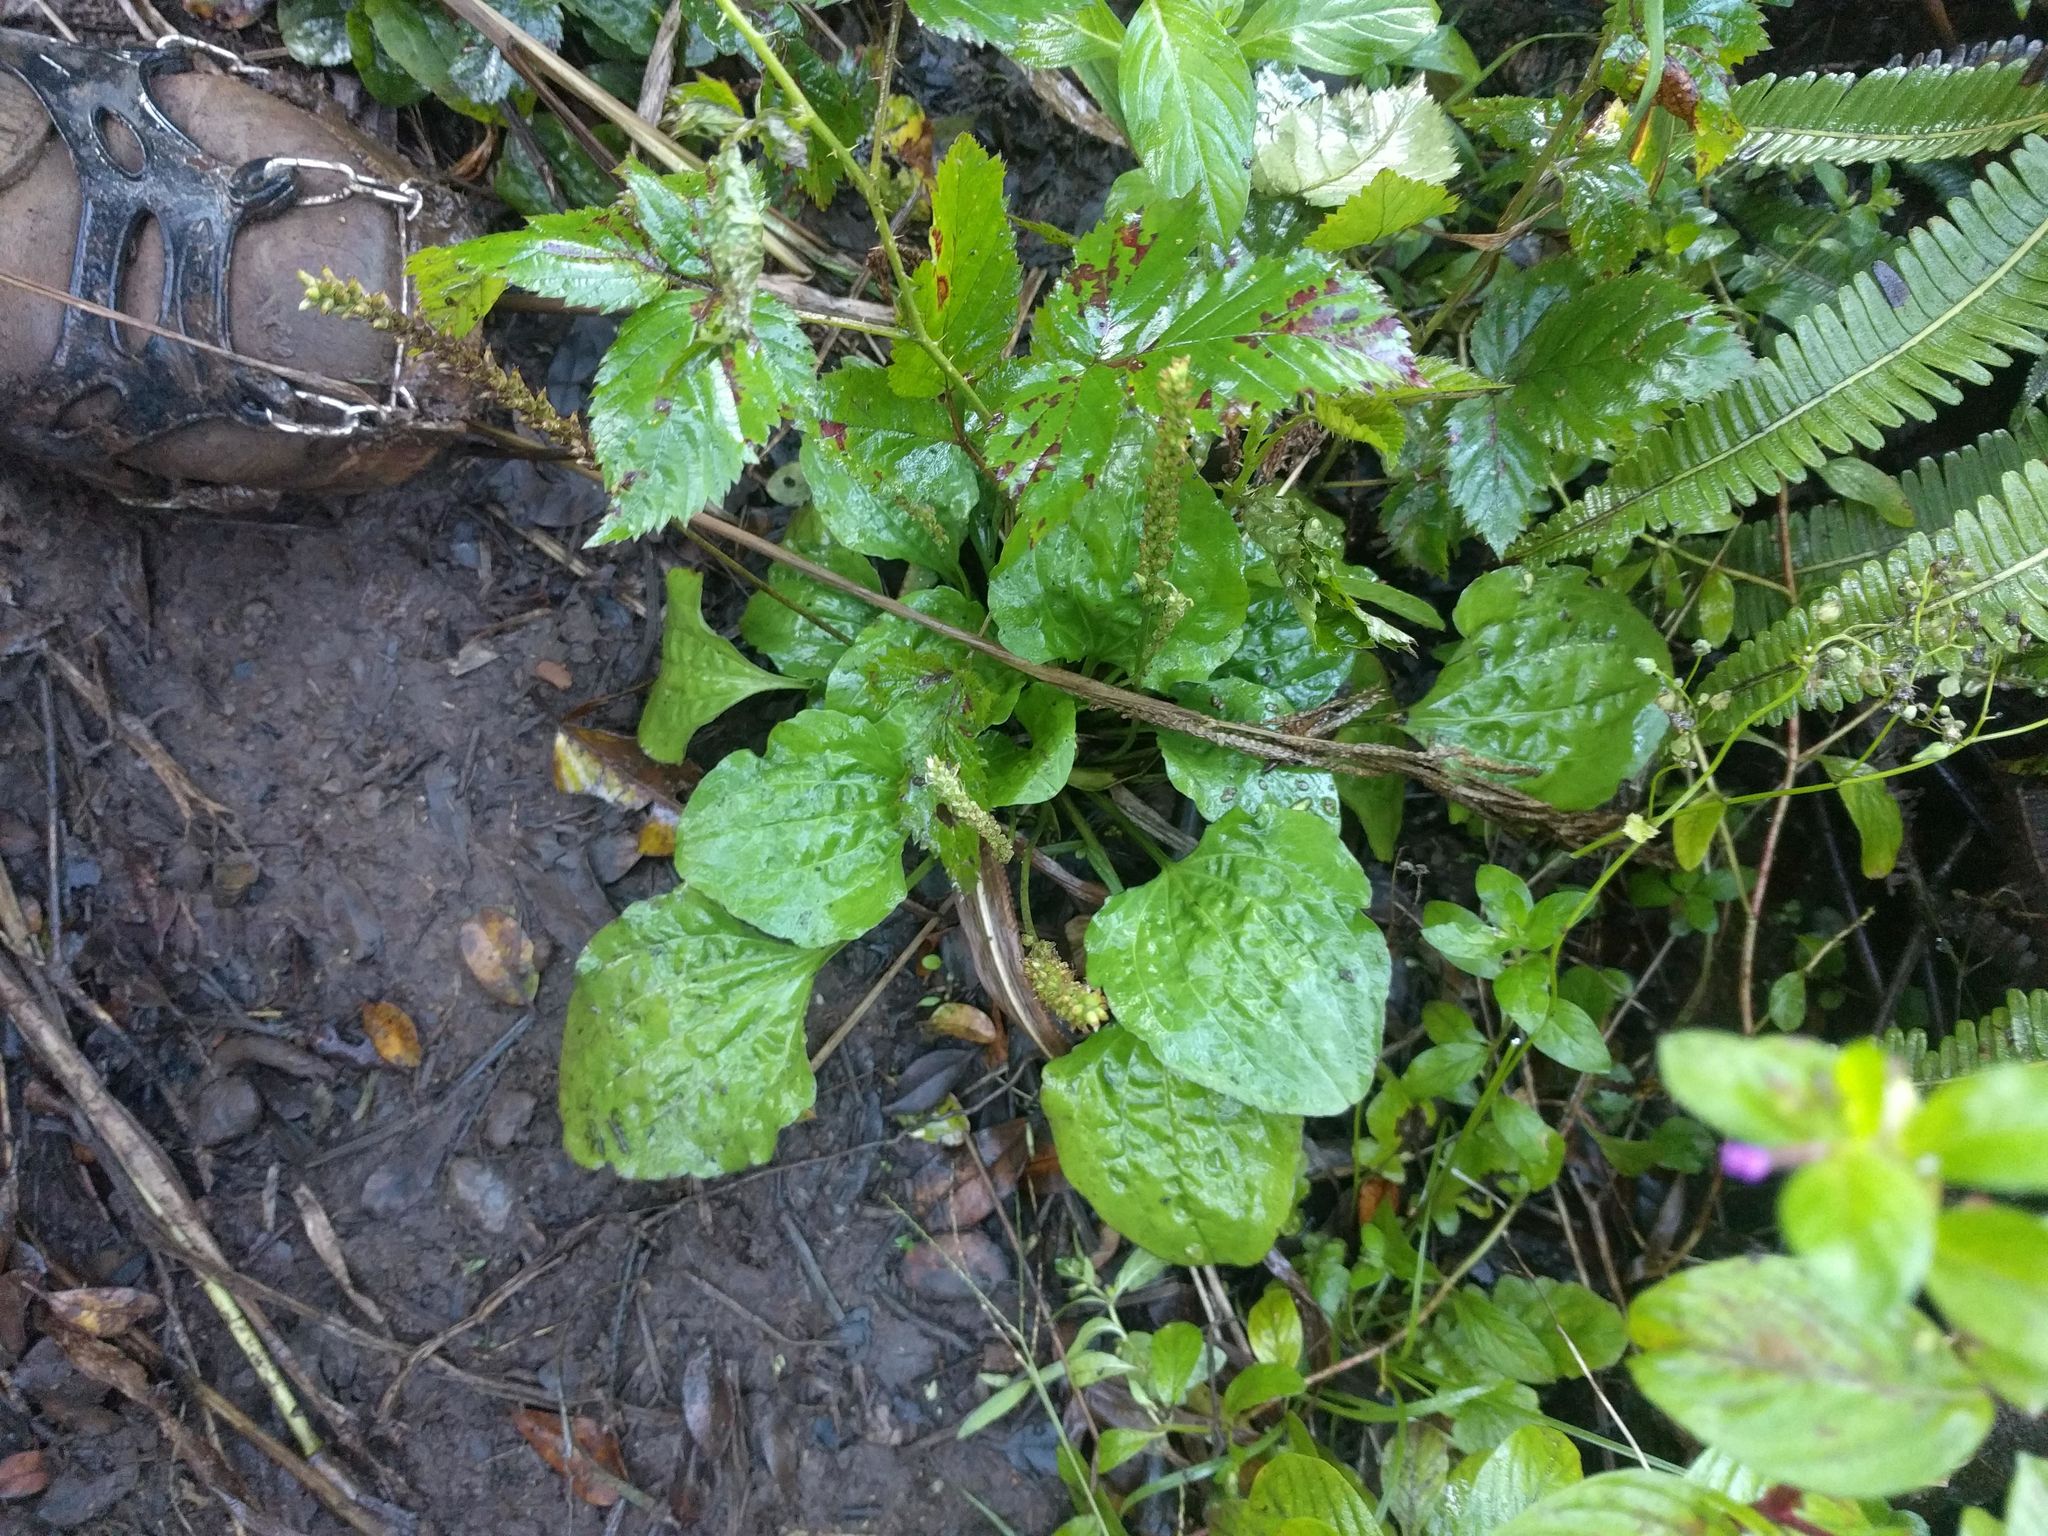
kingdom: Plantae
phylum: Tracheophyta
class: Magnoliopsida
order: Lamiales
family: Plantaginaceae
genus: Plantago
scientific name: Plantago major
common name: Common plantain
